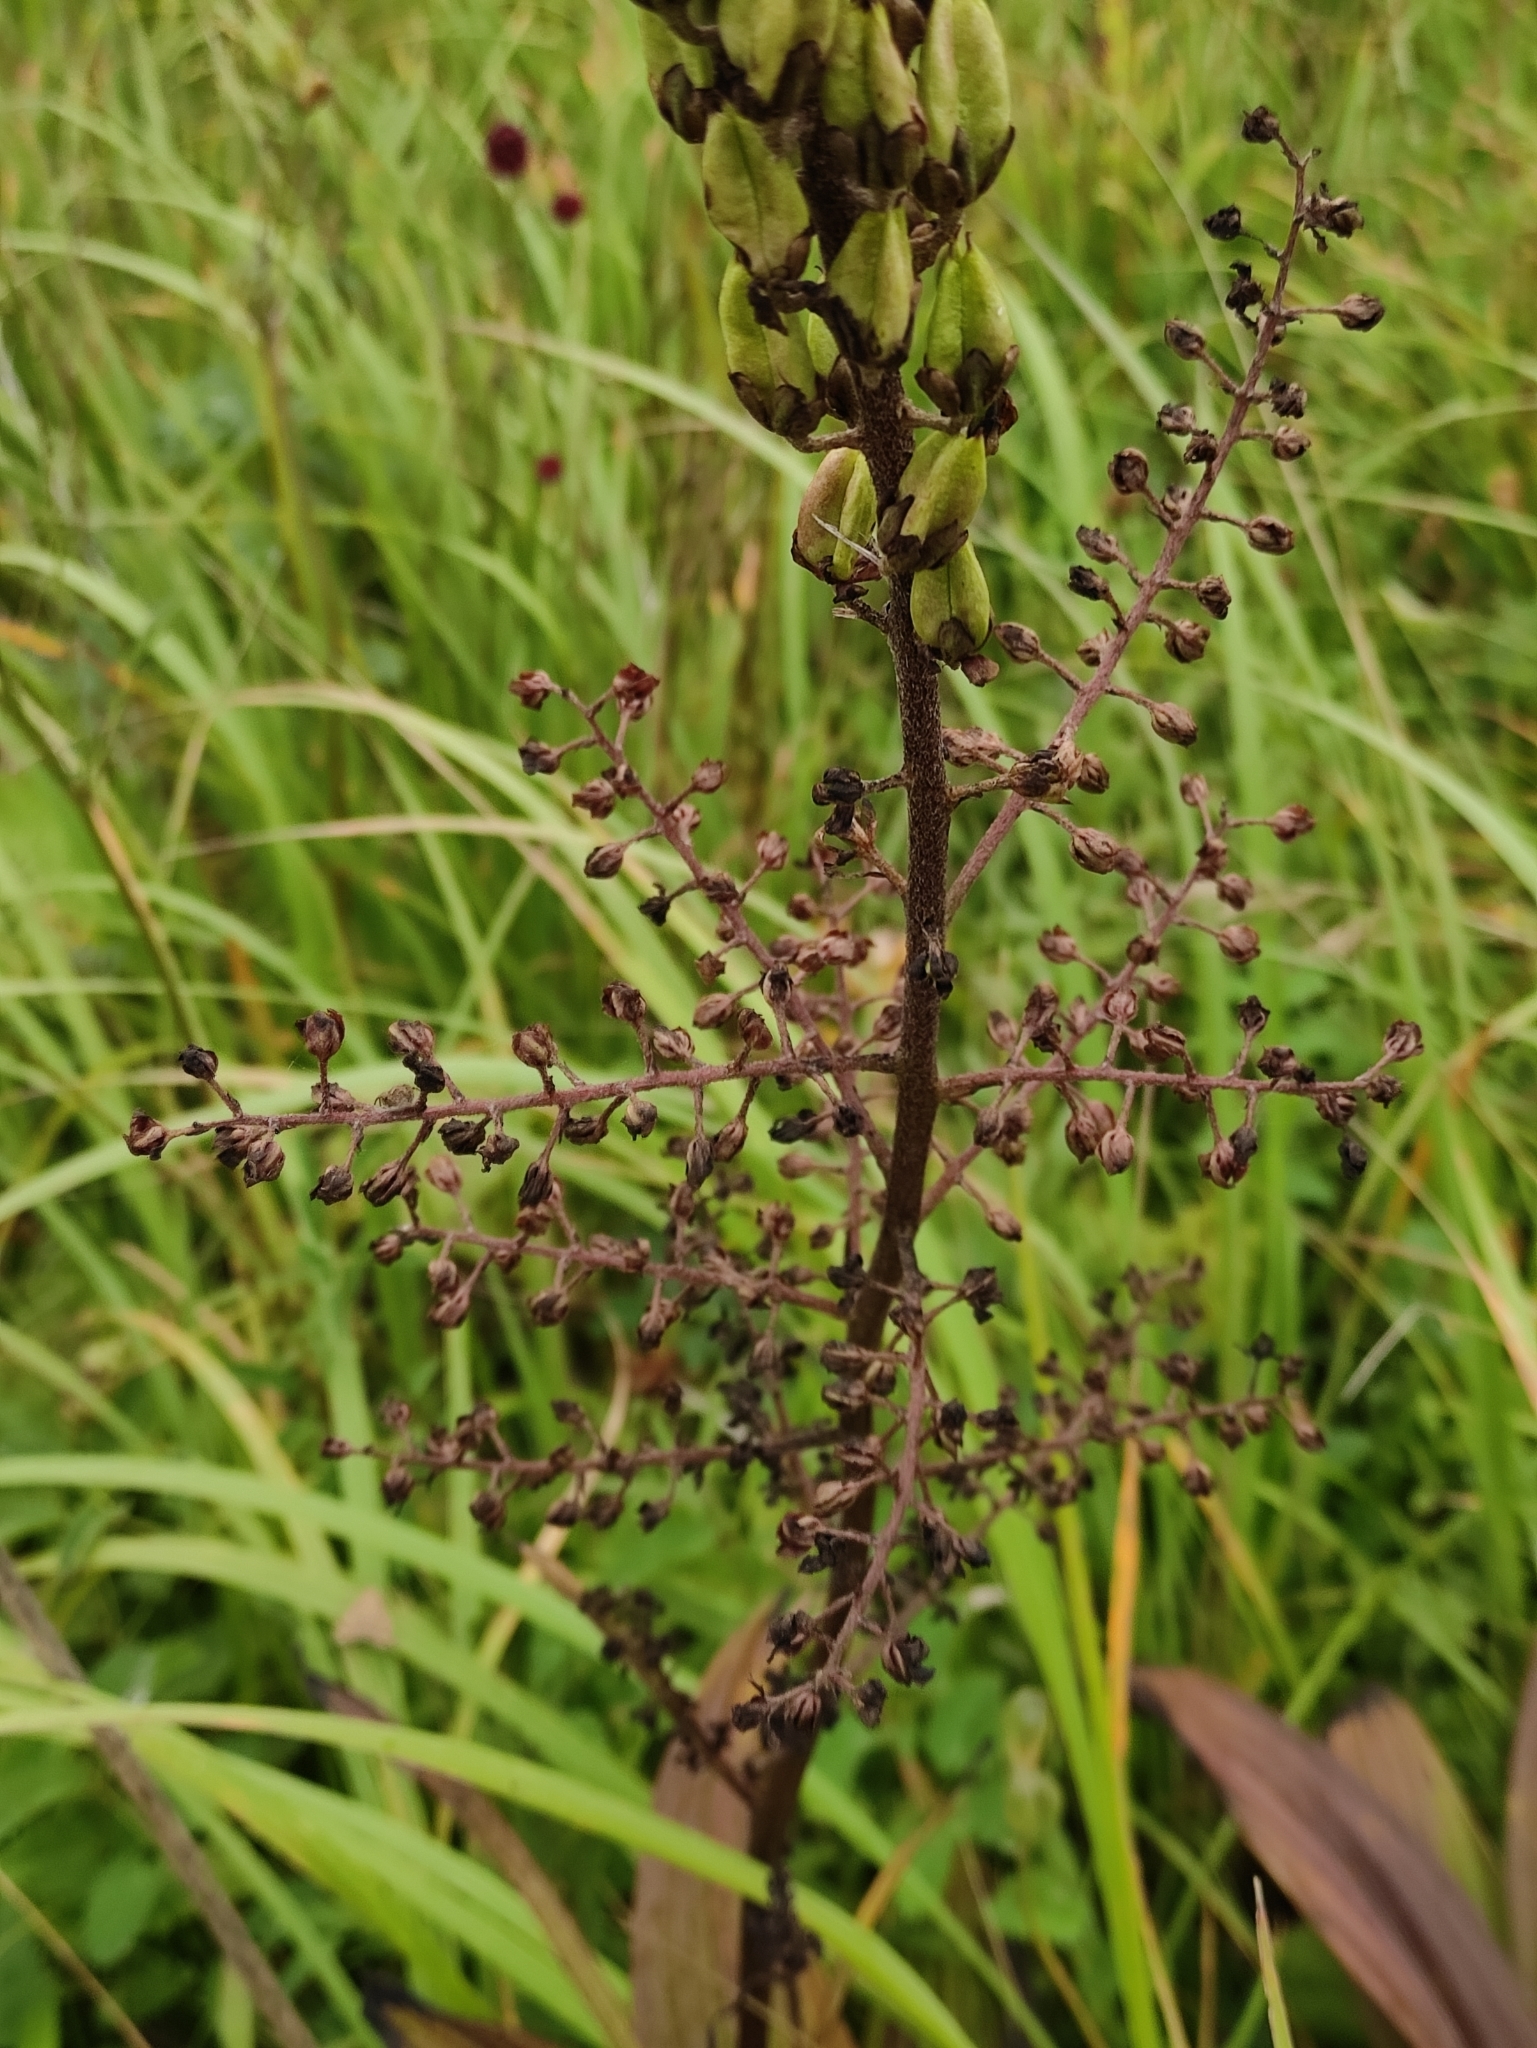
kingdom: Plantae
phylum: Tracheophyta
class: Liliopsida
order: Liliales
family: Melanthiaceae
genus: Veratrum
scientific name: Veratrum nigrum
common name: Black veratrum
